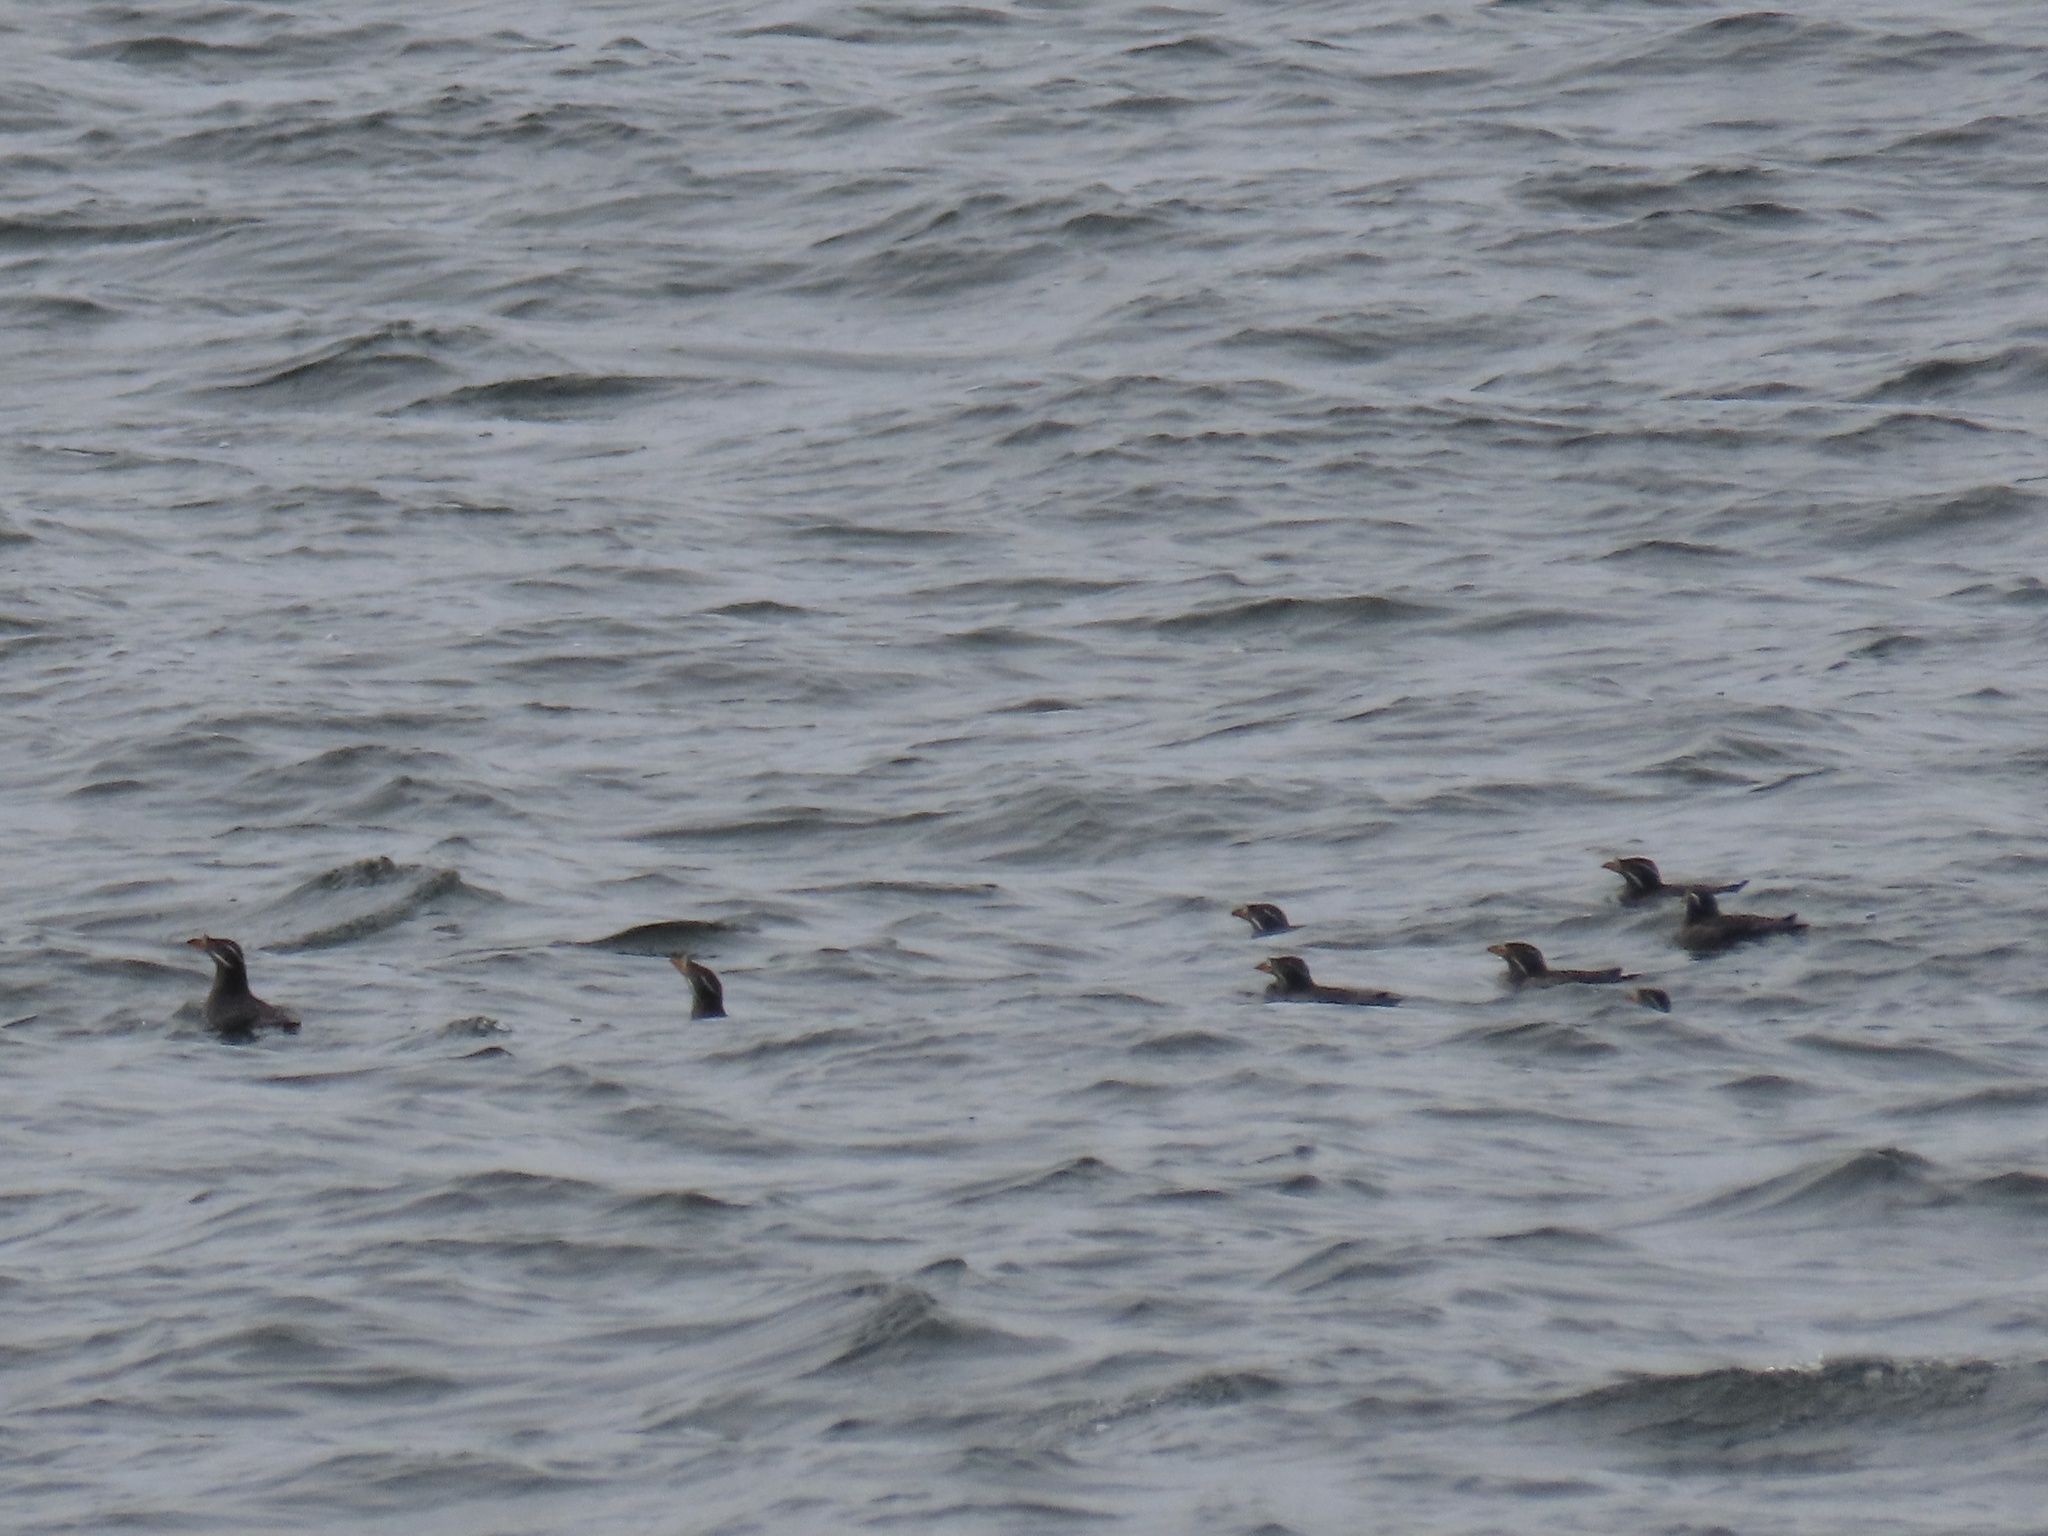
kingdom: Animalia
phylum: Chordata
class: Aves
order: Charadriiformes
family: Alcidae
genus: Cerorhinca
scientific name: Cerorhinca monocerata
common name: Rhinoceros auklet
